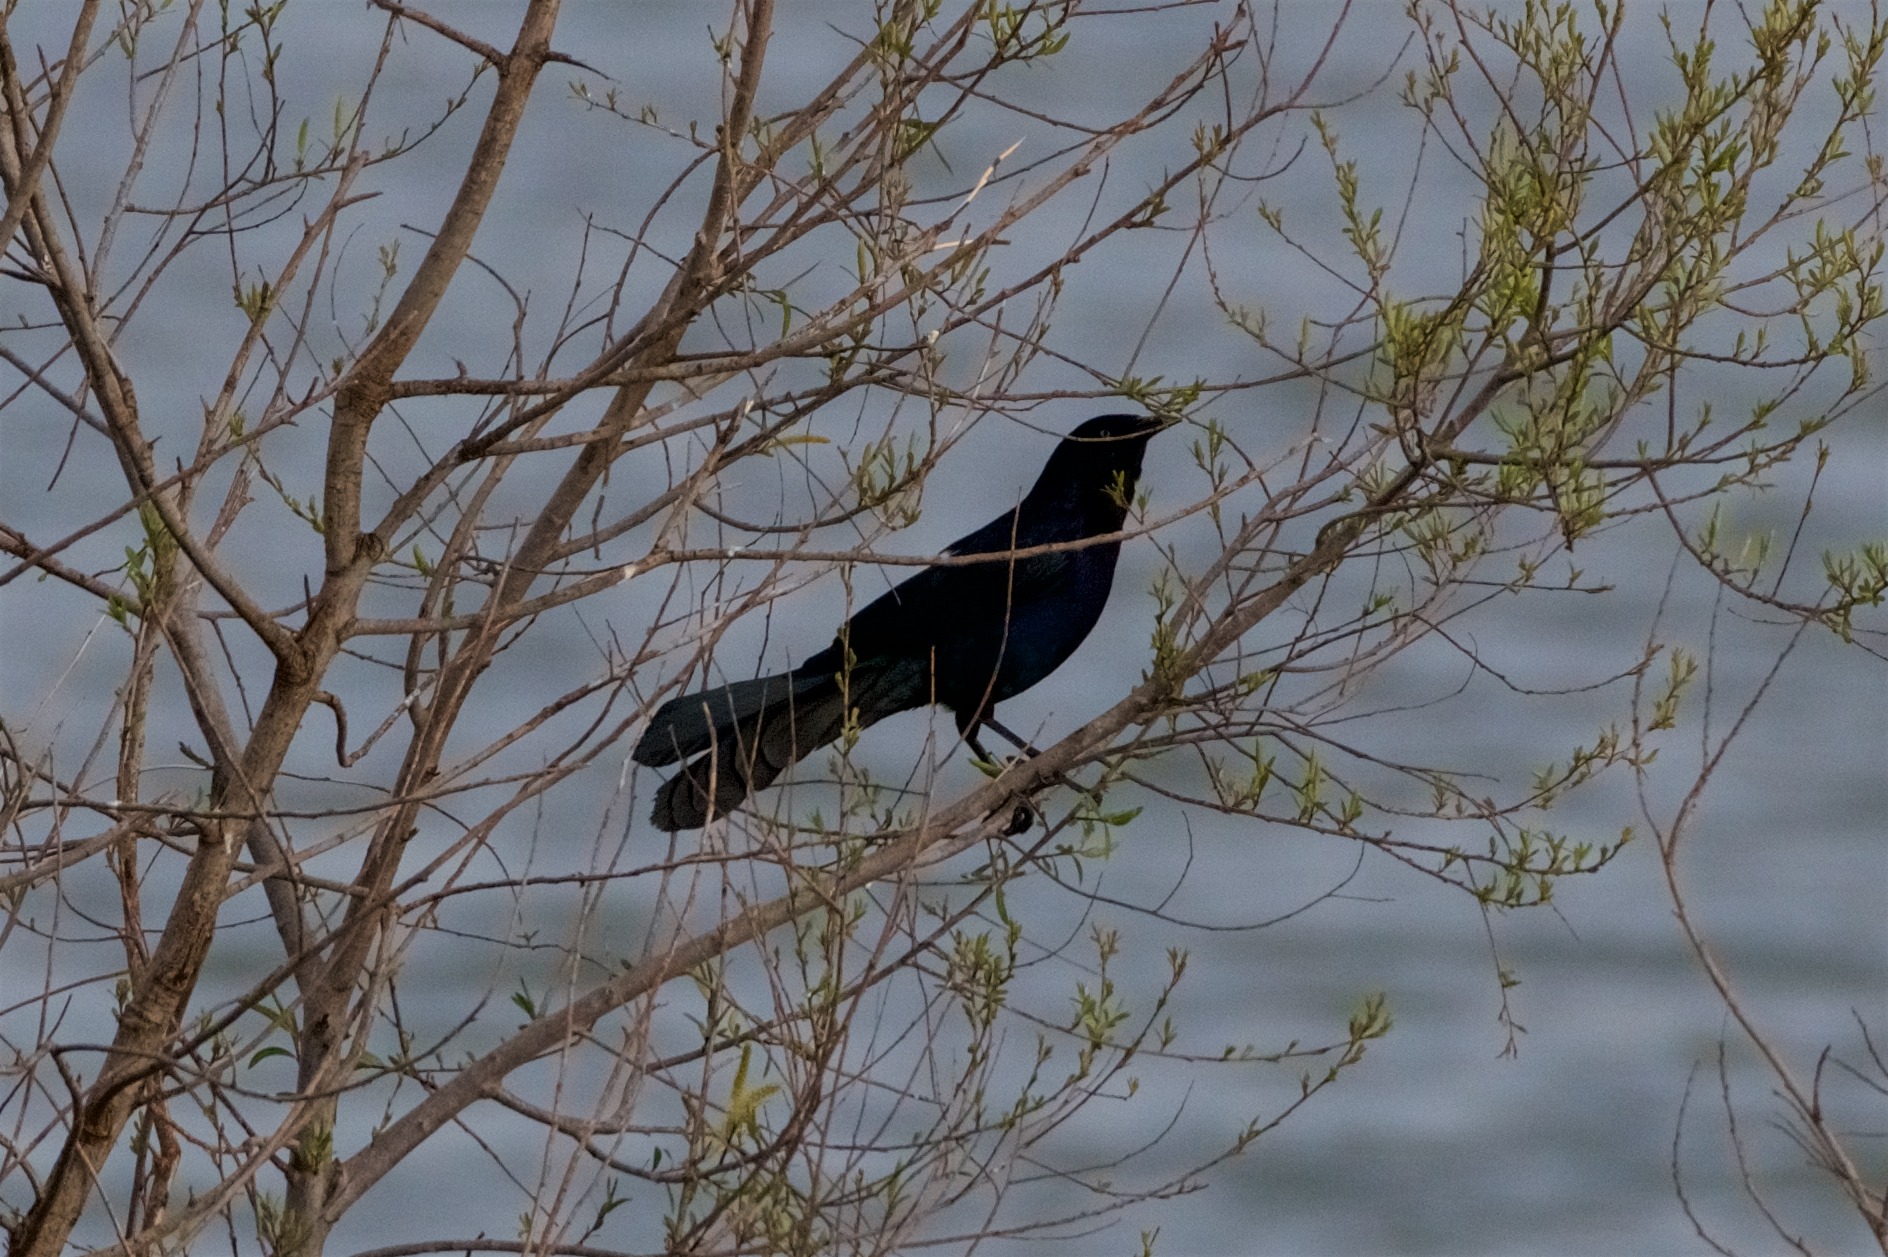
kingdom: Animalia
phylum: Chordata
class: Aves
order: Passeriformes
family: Icteridae
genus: Quiscalus
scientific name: Quiscalus mexicanus
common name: Great-tailed grackle
